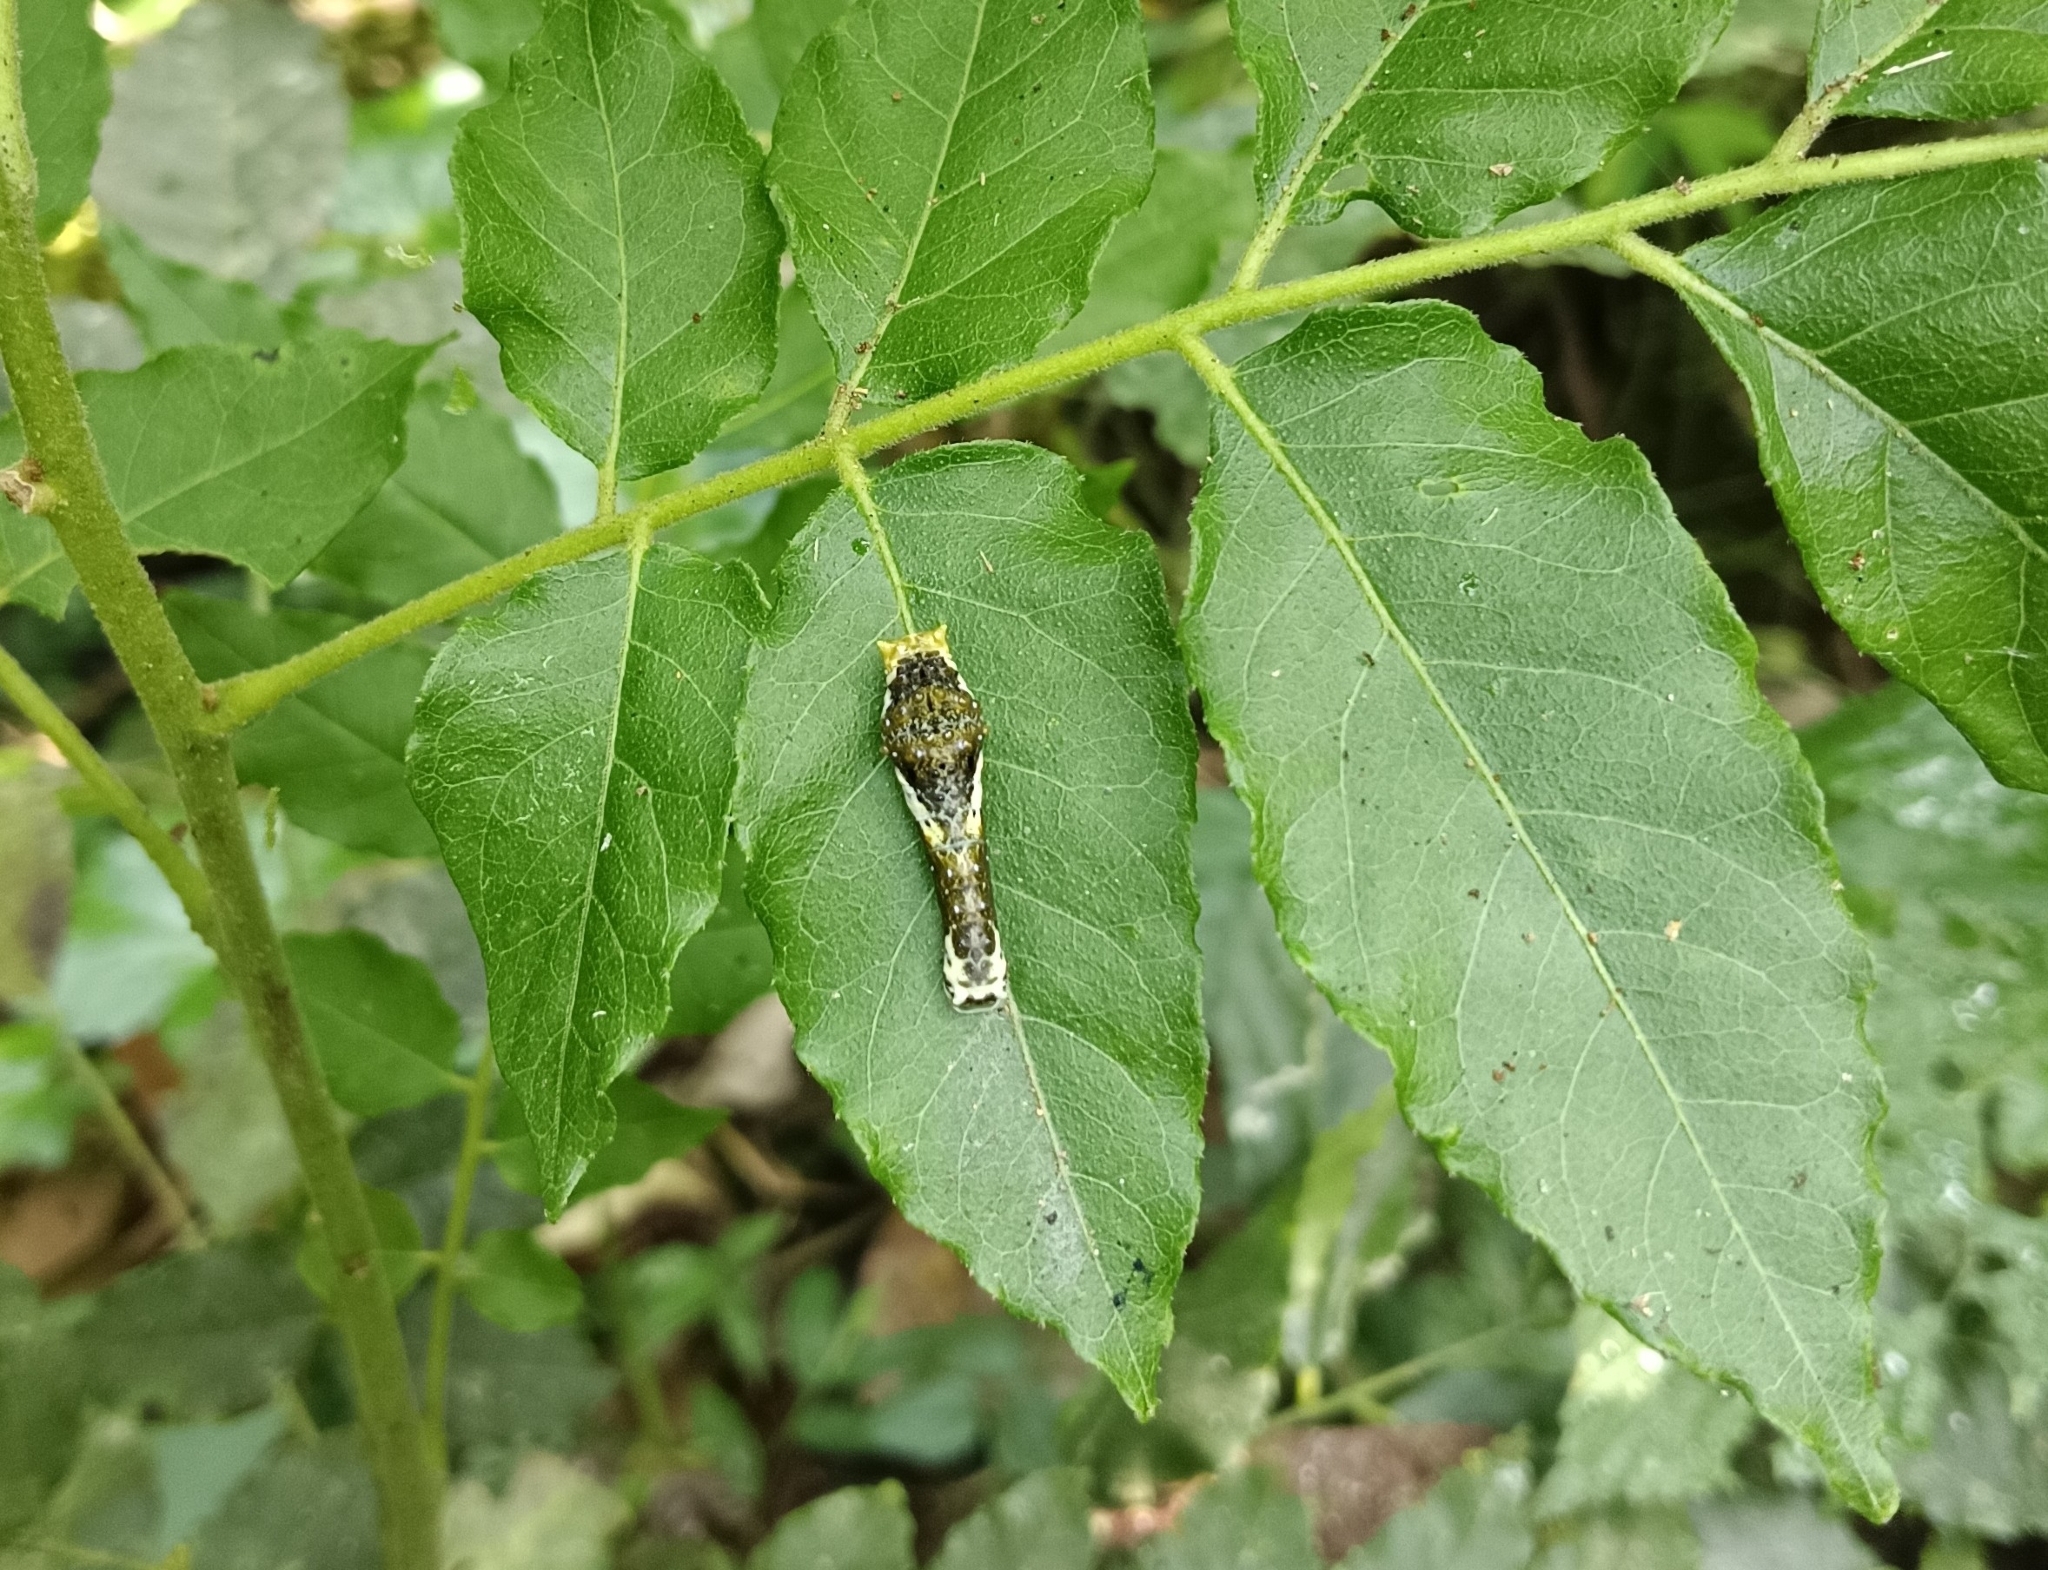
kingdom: Animalia
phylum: Arthropoda
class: Insecta
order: Lepidoptera
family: Papilionidae
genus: Papilio
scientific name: Papilio polytes
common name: Common mormon
